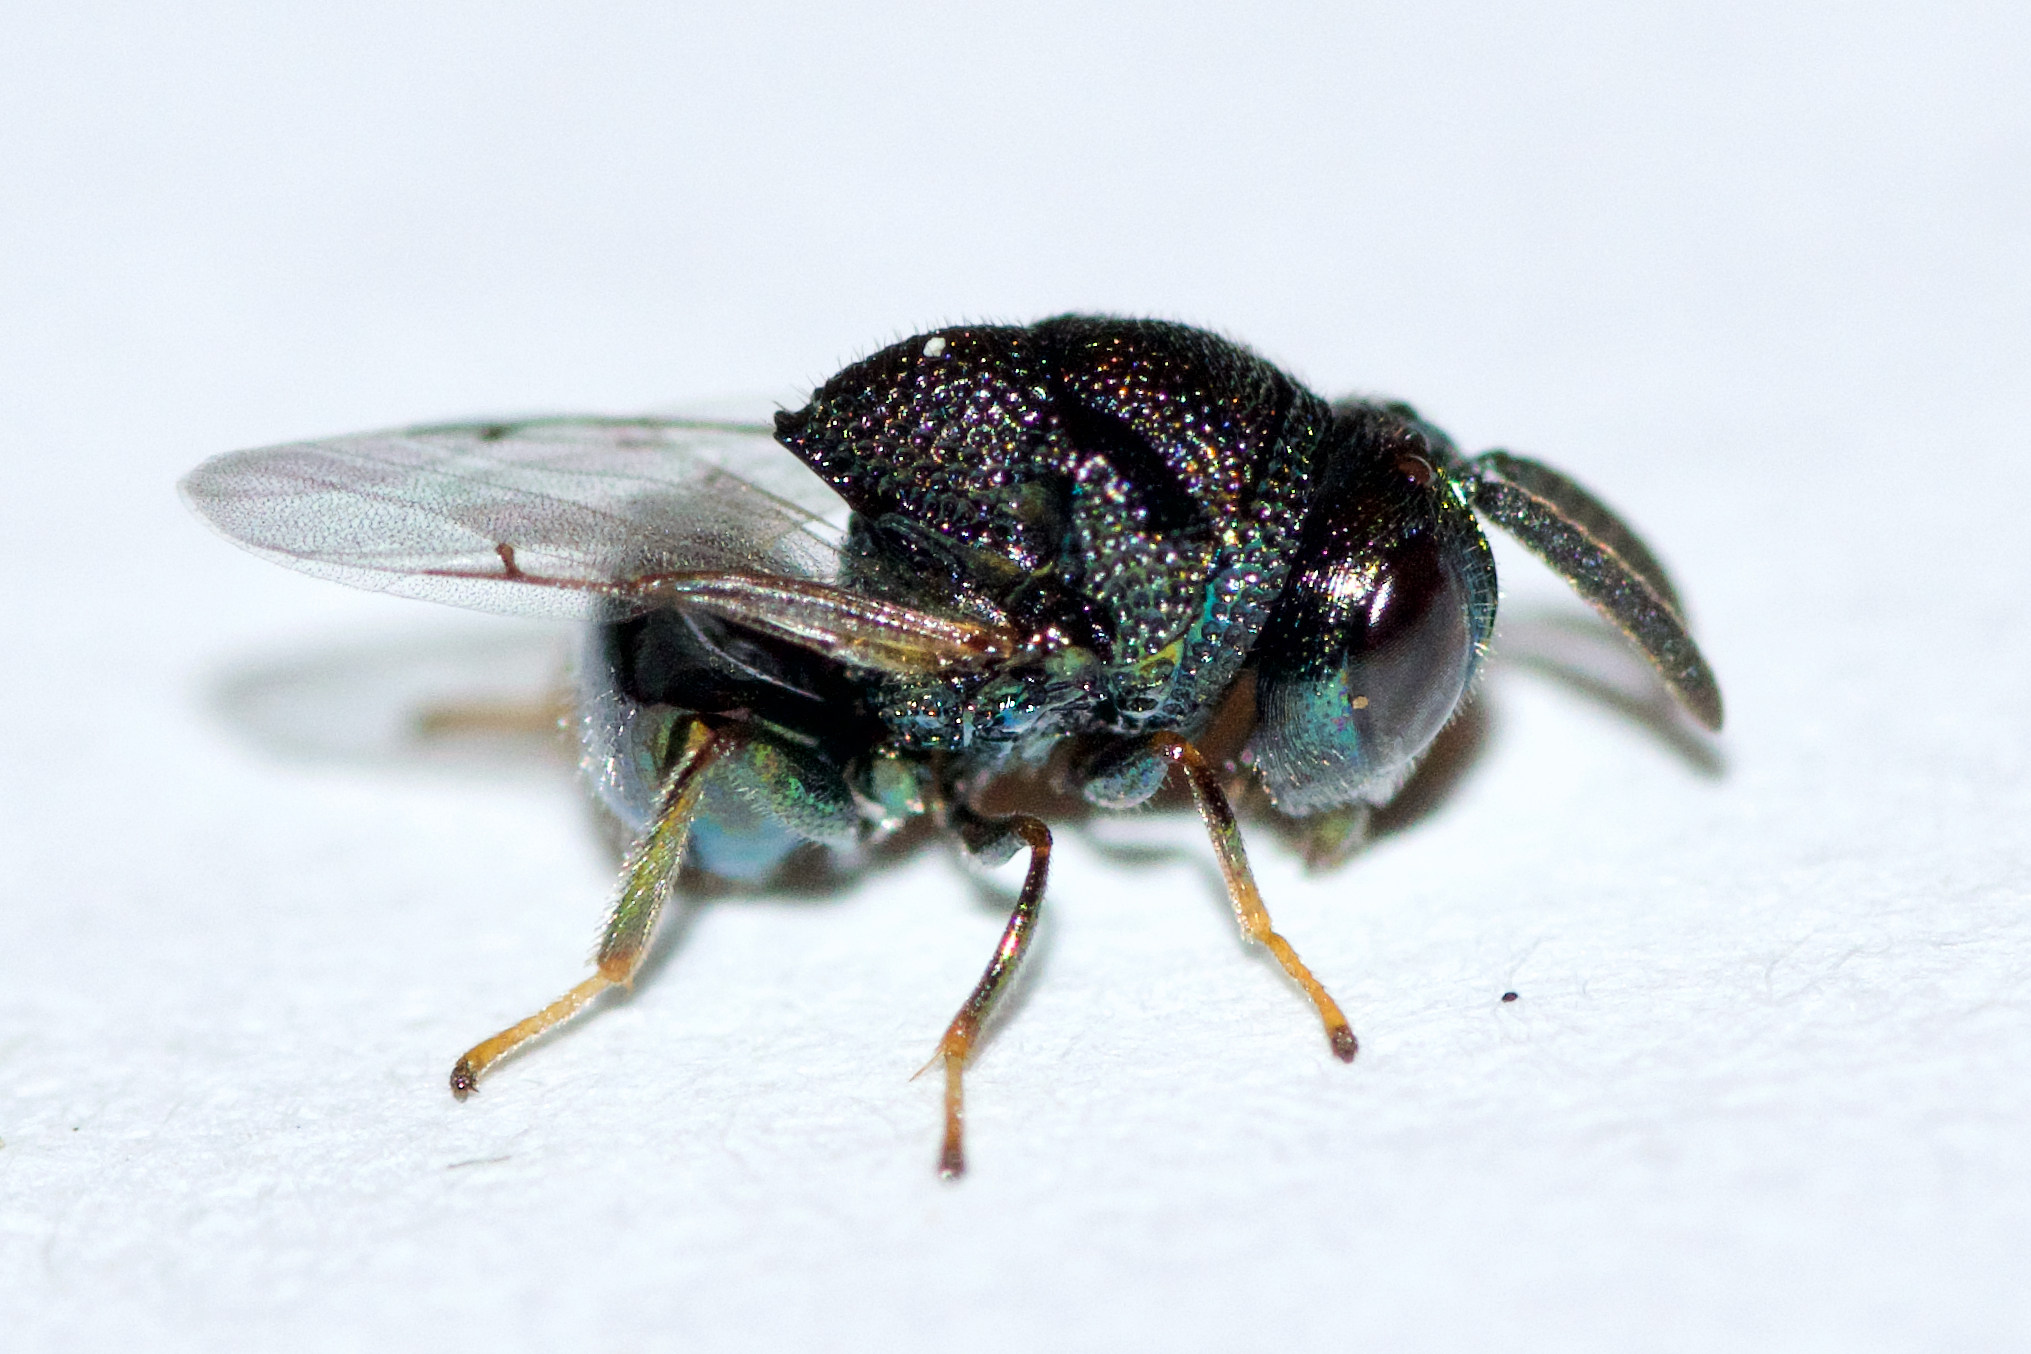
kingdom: Animalia
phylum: Arthropoda
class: Insecta
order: Hymenoptera
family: Perilampidae
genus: Perilampus
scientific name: Perilampus hyalinus
